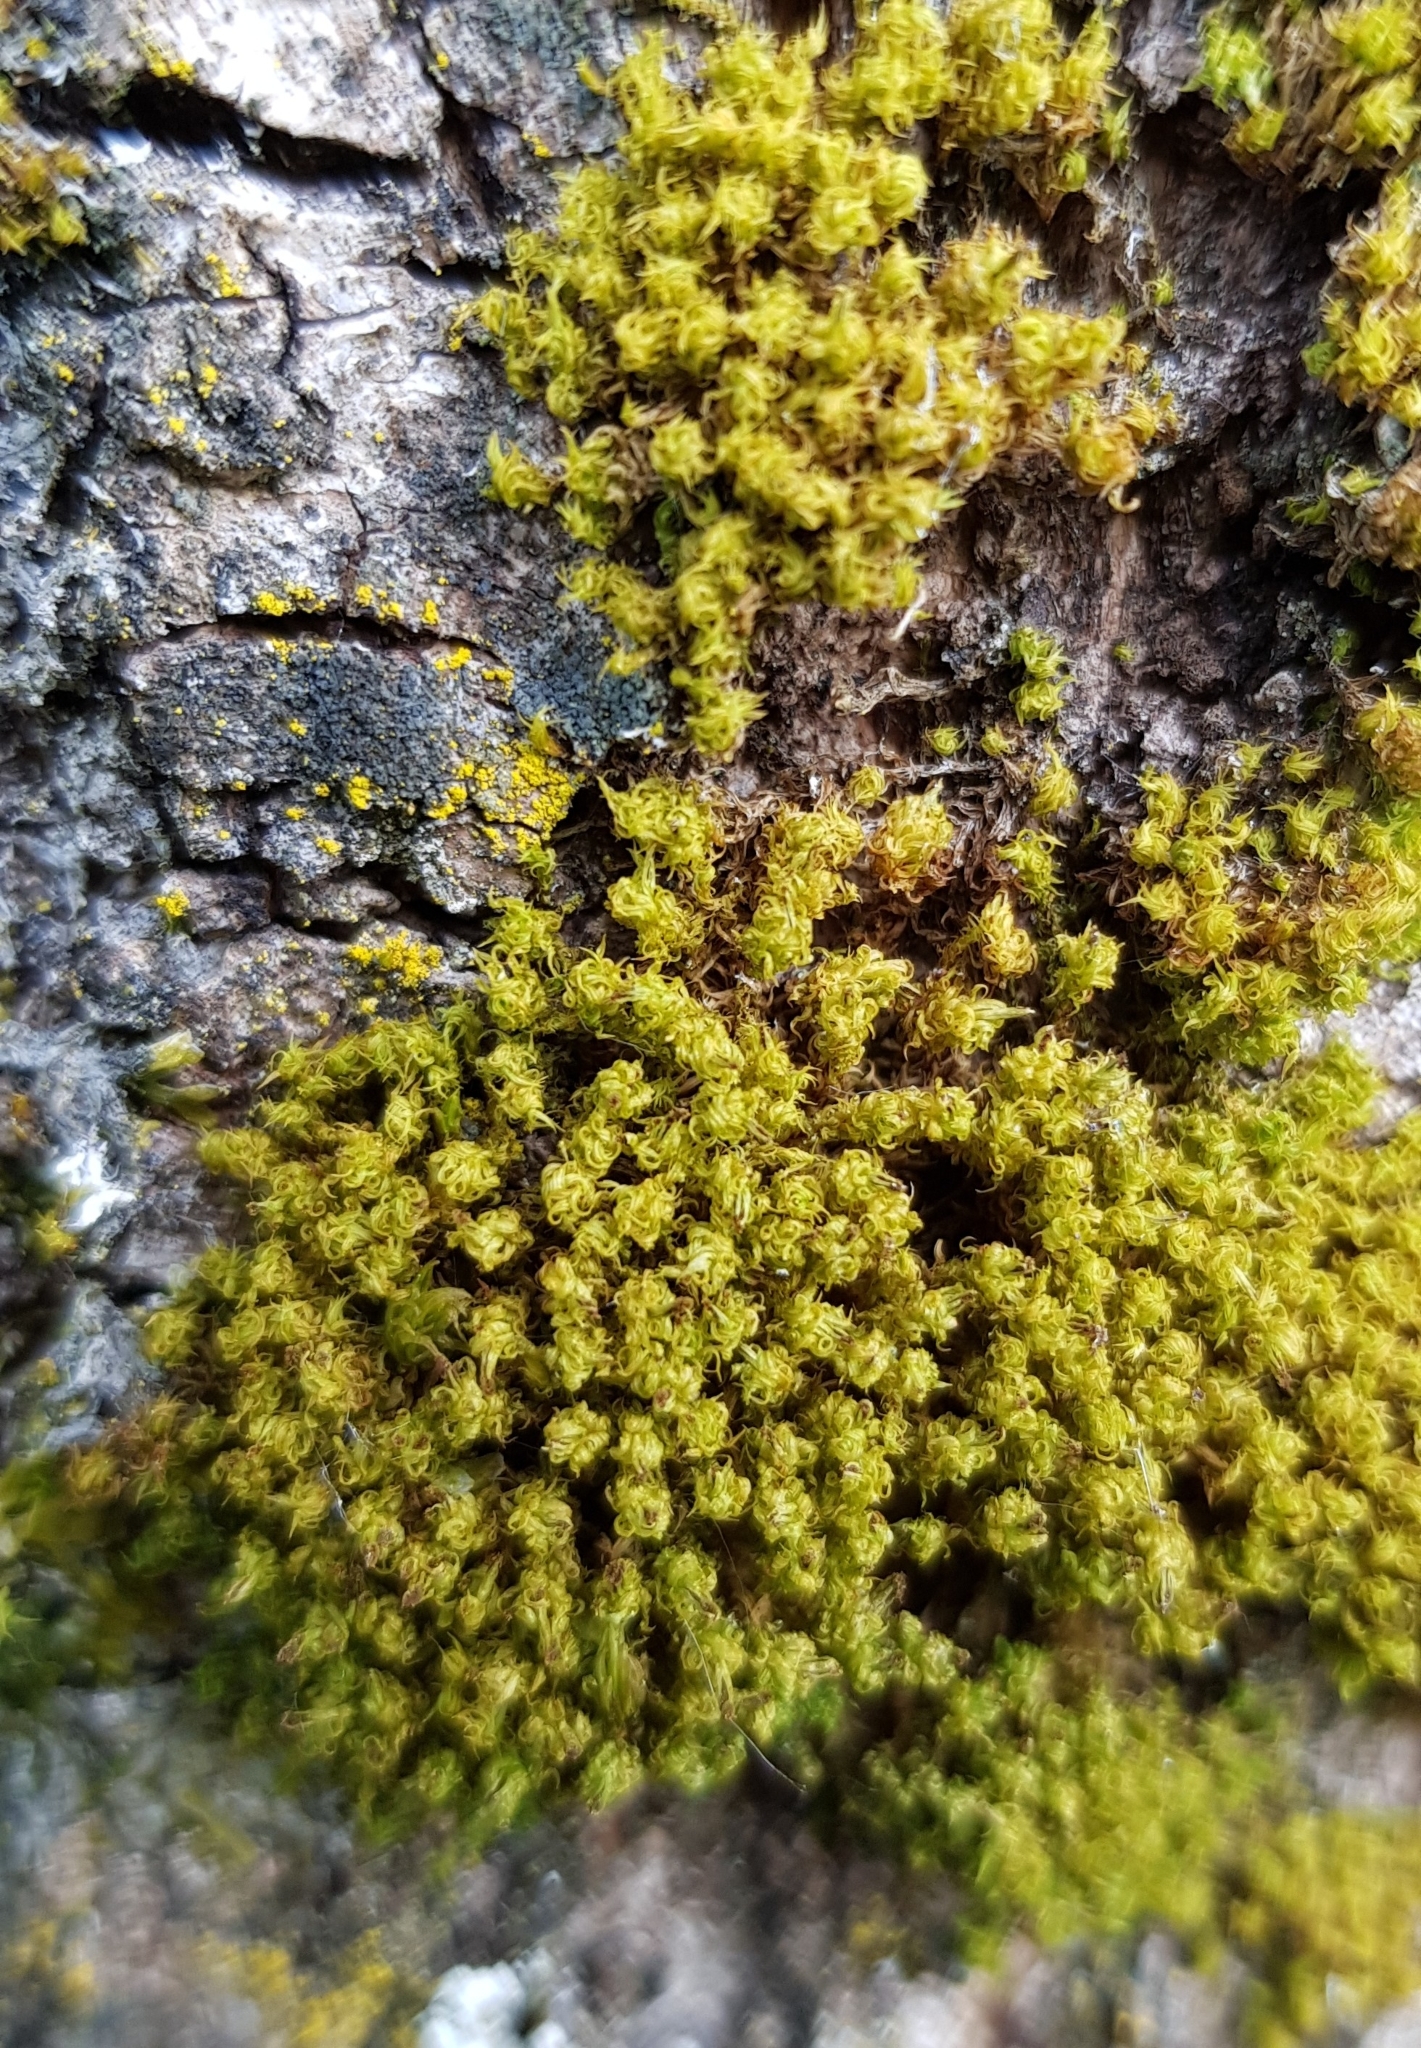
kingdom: Plantae
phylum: Bryophyta
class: Bryopsida
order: Orthotrichales
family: Orthotrichaceae
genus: Plenogemma
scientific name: Plenogemma phyllantha
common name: Frizzled pincushion
